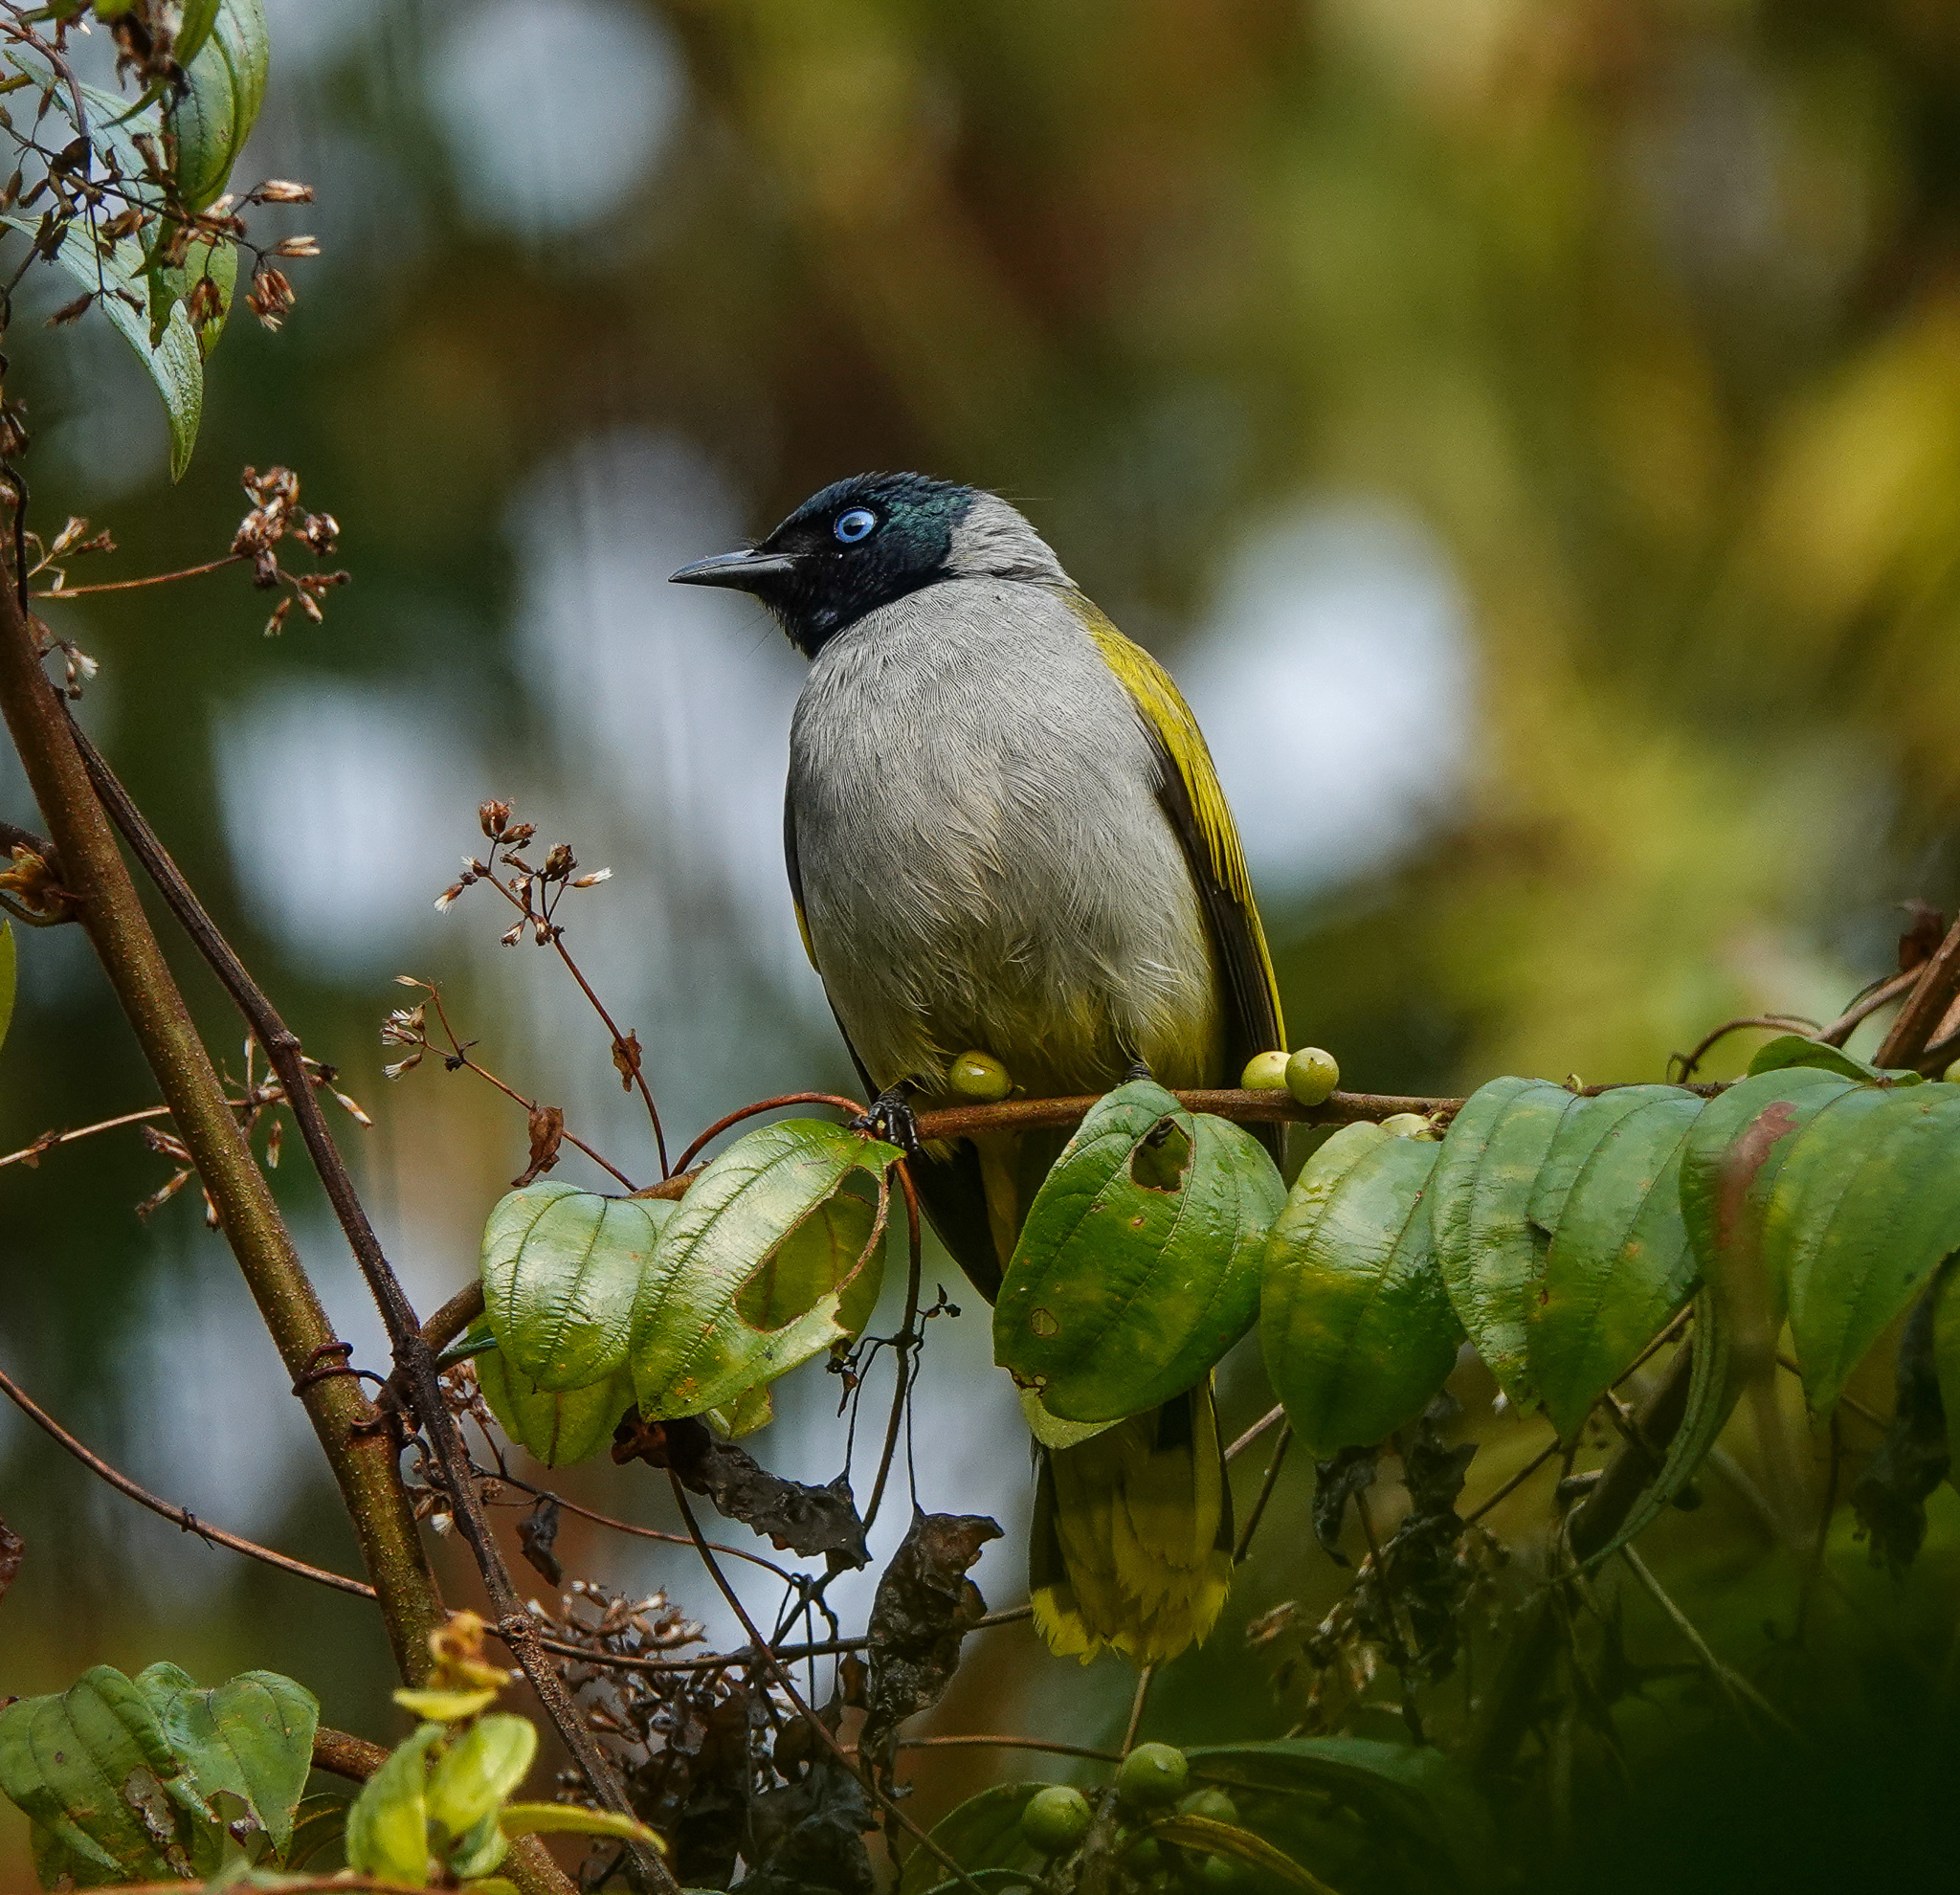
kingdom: Animalia
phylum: Chordata
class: Aves
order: Passeriformes
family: Pycnonotidae
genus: Microtarsus
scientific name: Microtarsus
